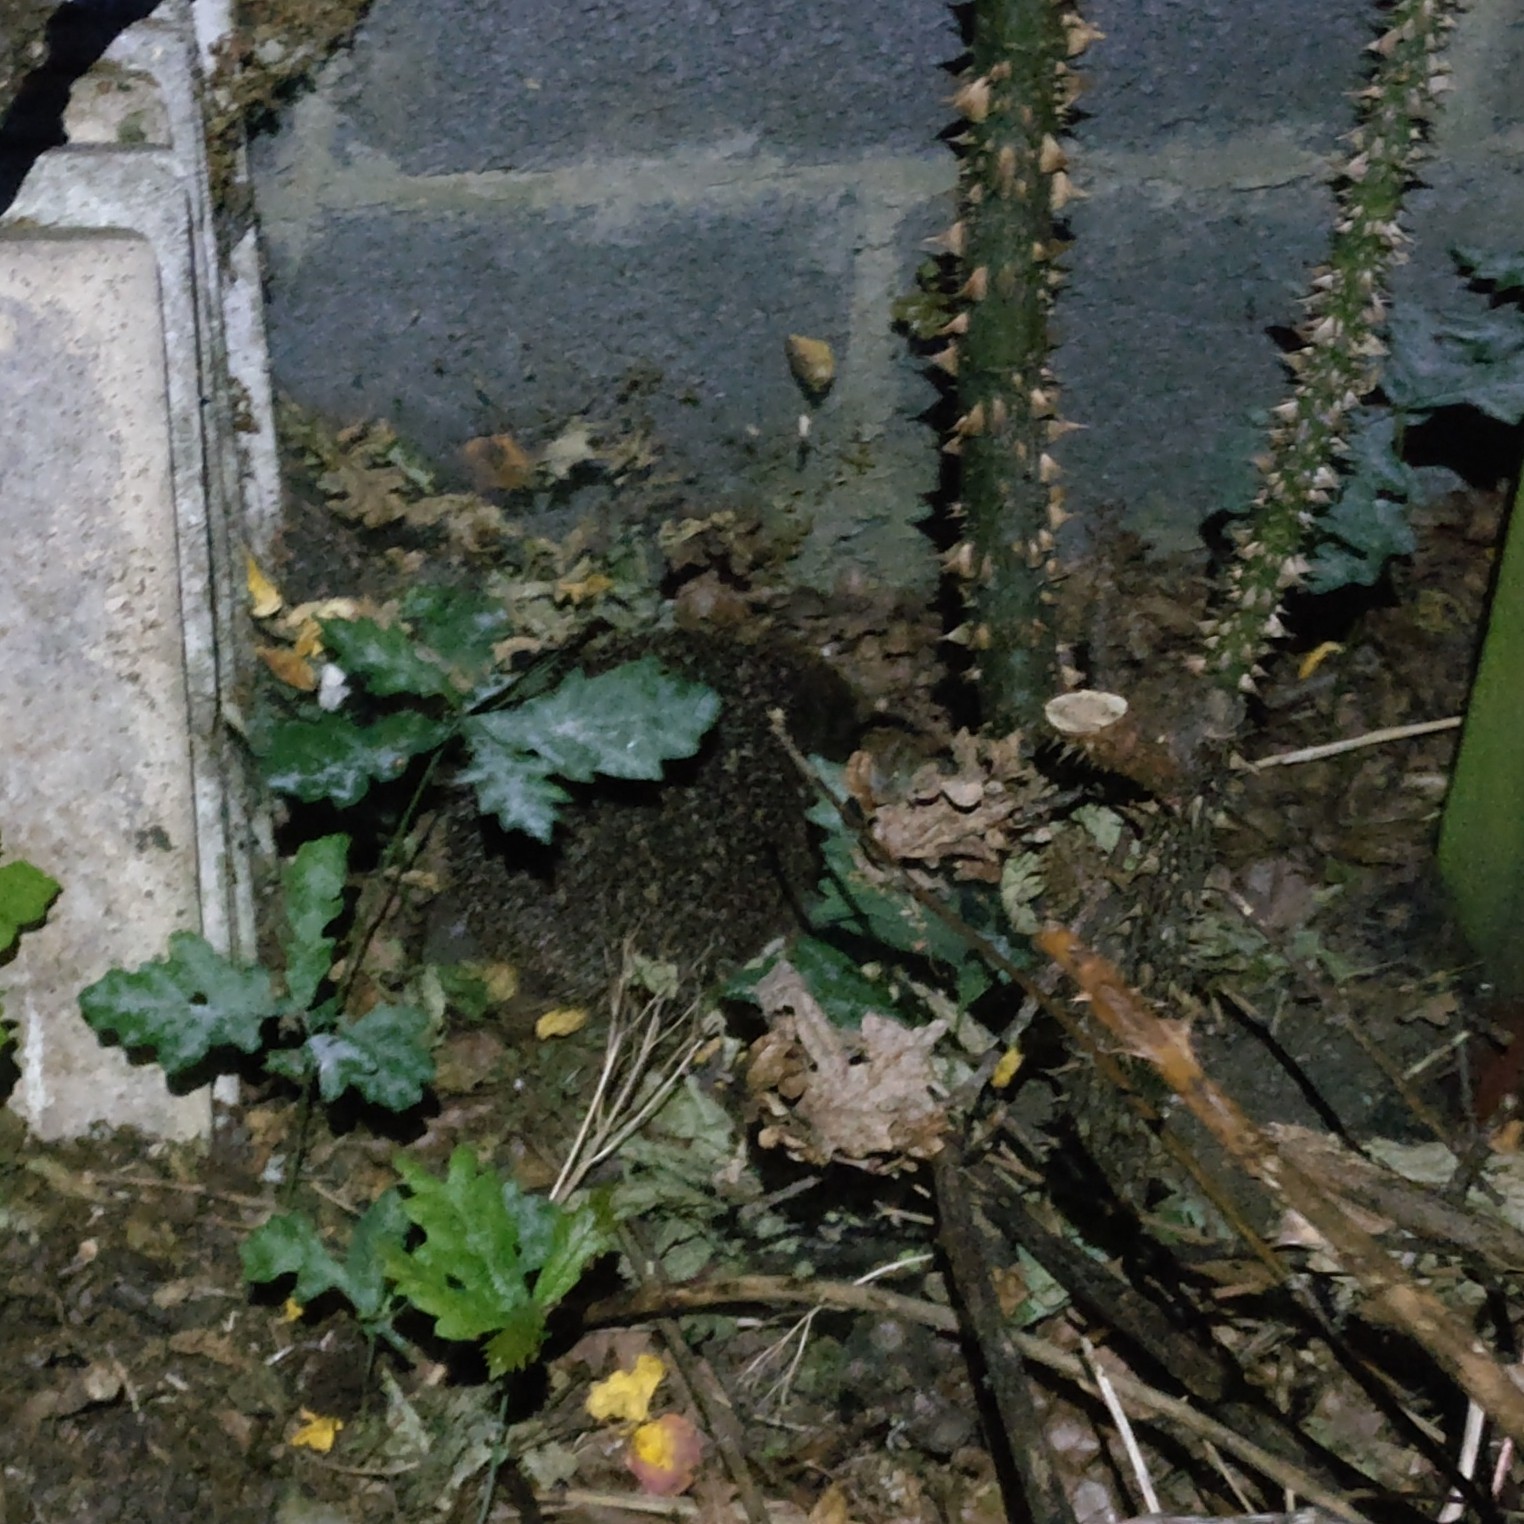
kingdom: Animalia
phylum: Chordata
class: Mammalia
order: Erinaceomorpha
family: Erinaceidae
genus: Erinaceus
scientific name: Erinaceus europaeus
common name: West european hedgehog
